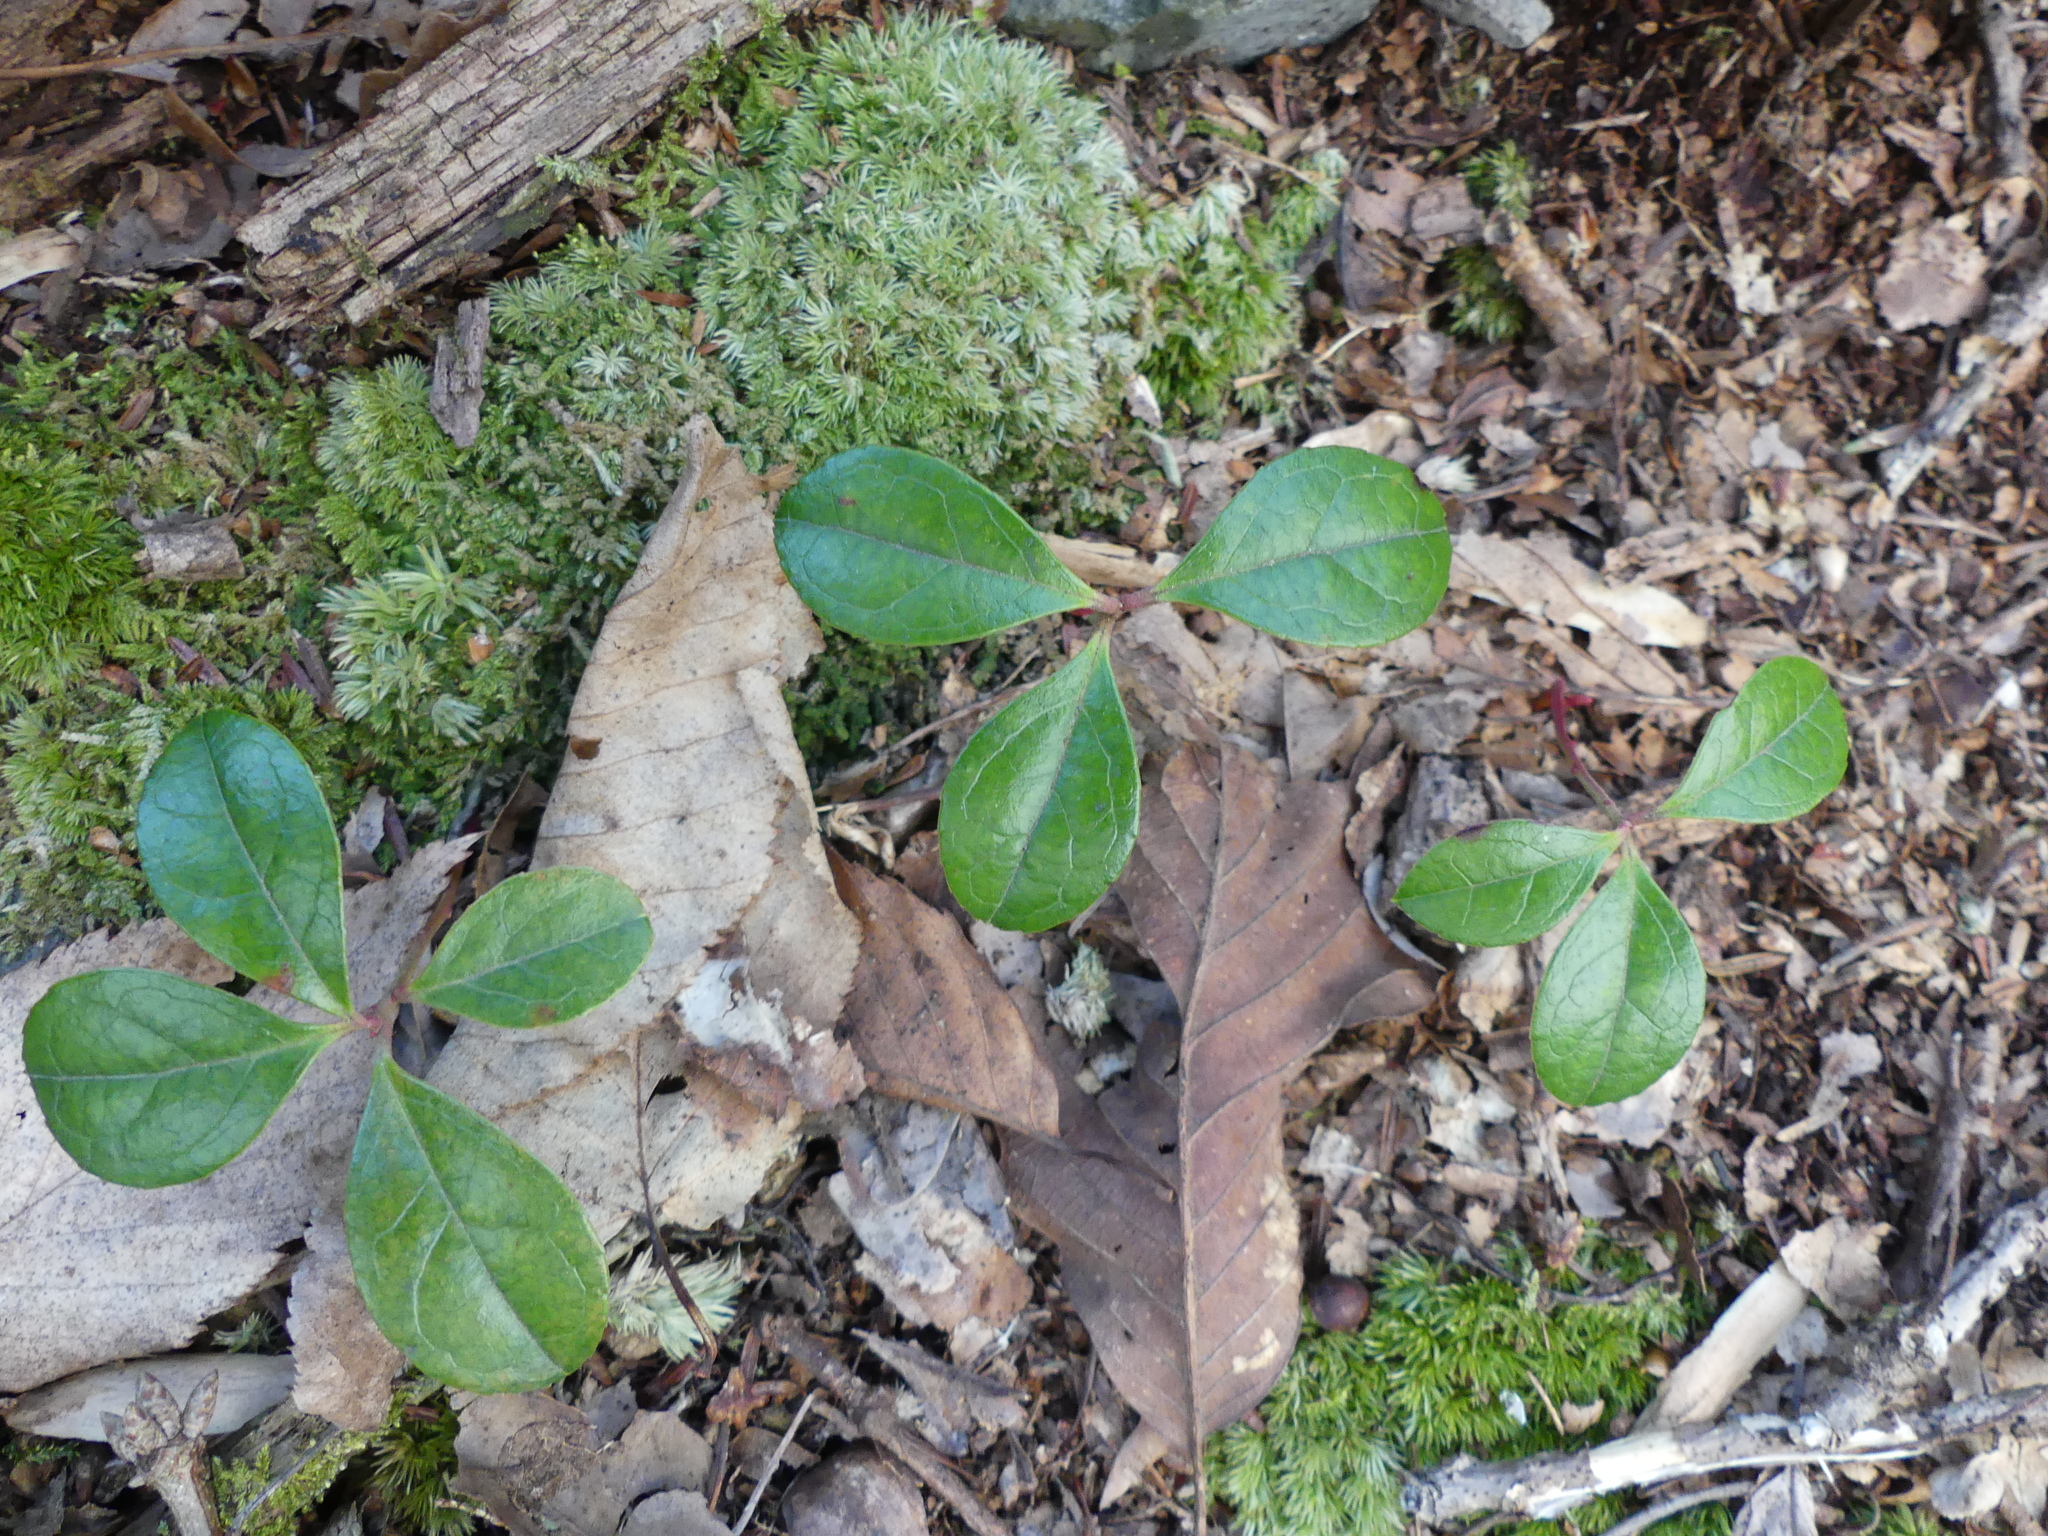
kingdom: Plantae
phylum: Tracheophyta
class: Magnoliopsida
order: Ericales
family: Ericaceae
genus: Gaultheria
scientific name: Gaultheria procumbens
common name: Checkerberry
